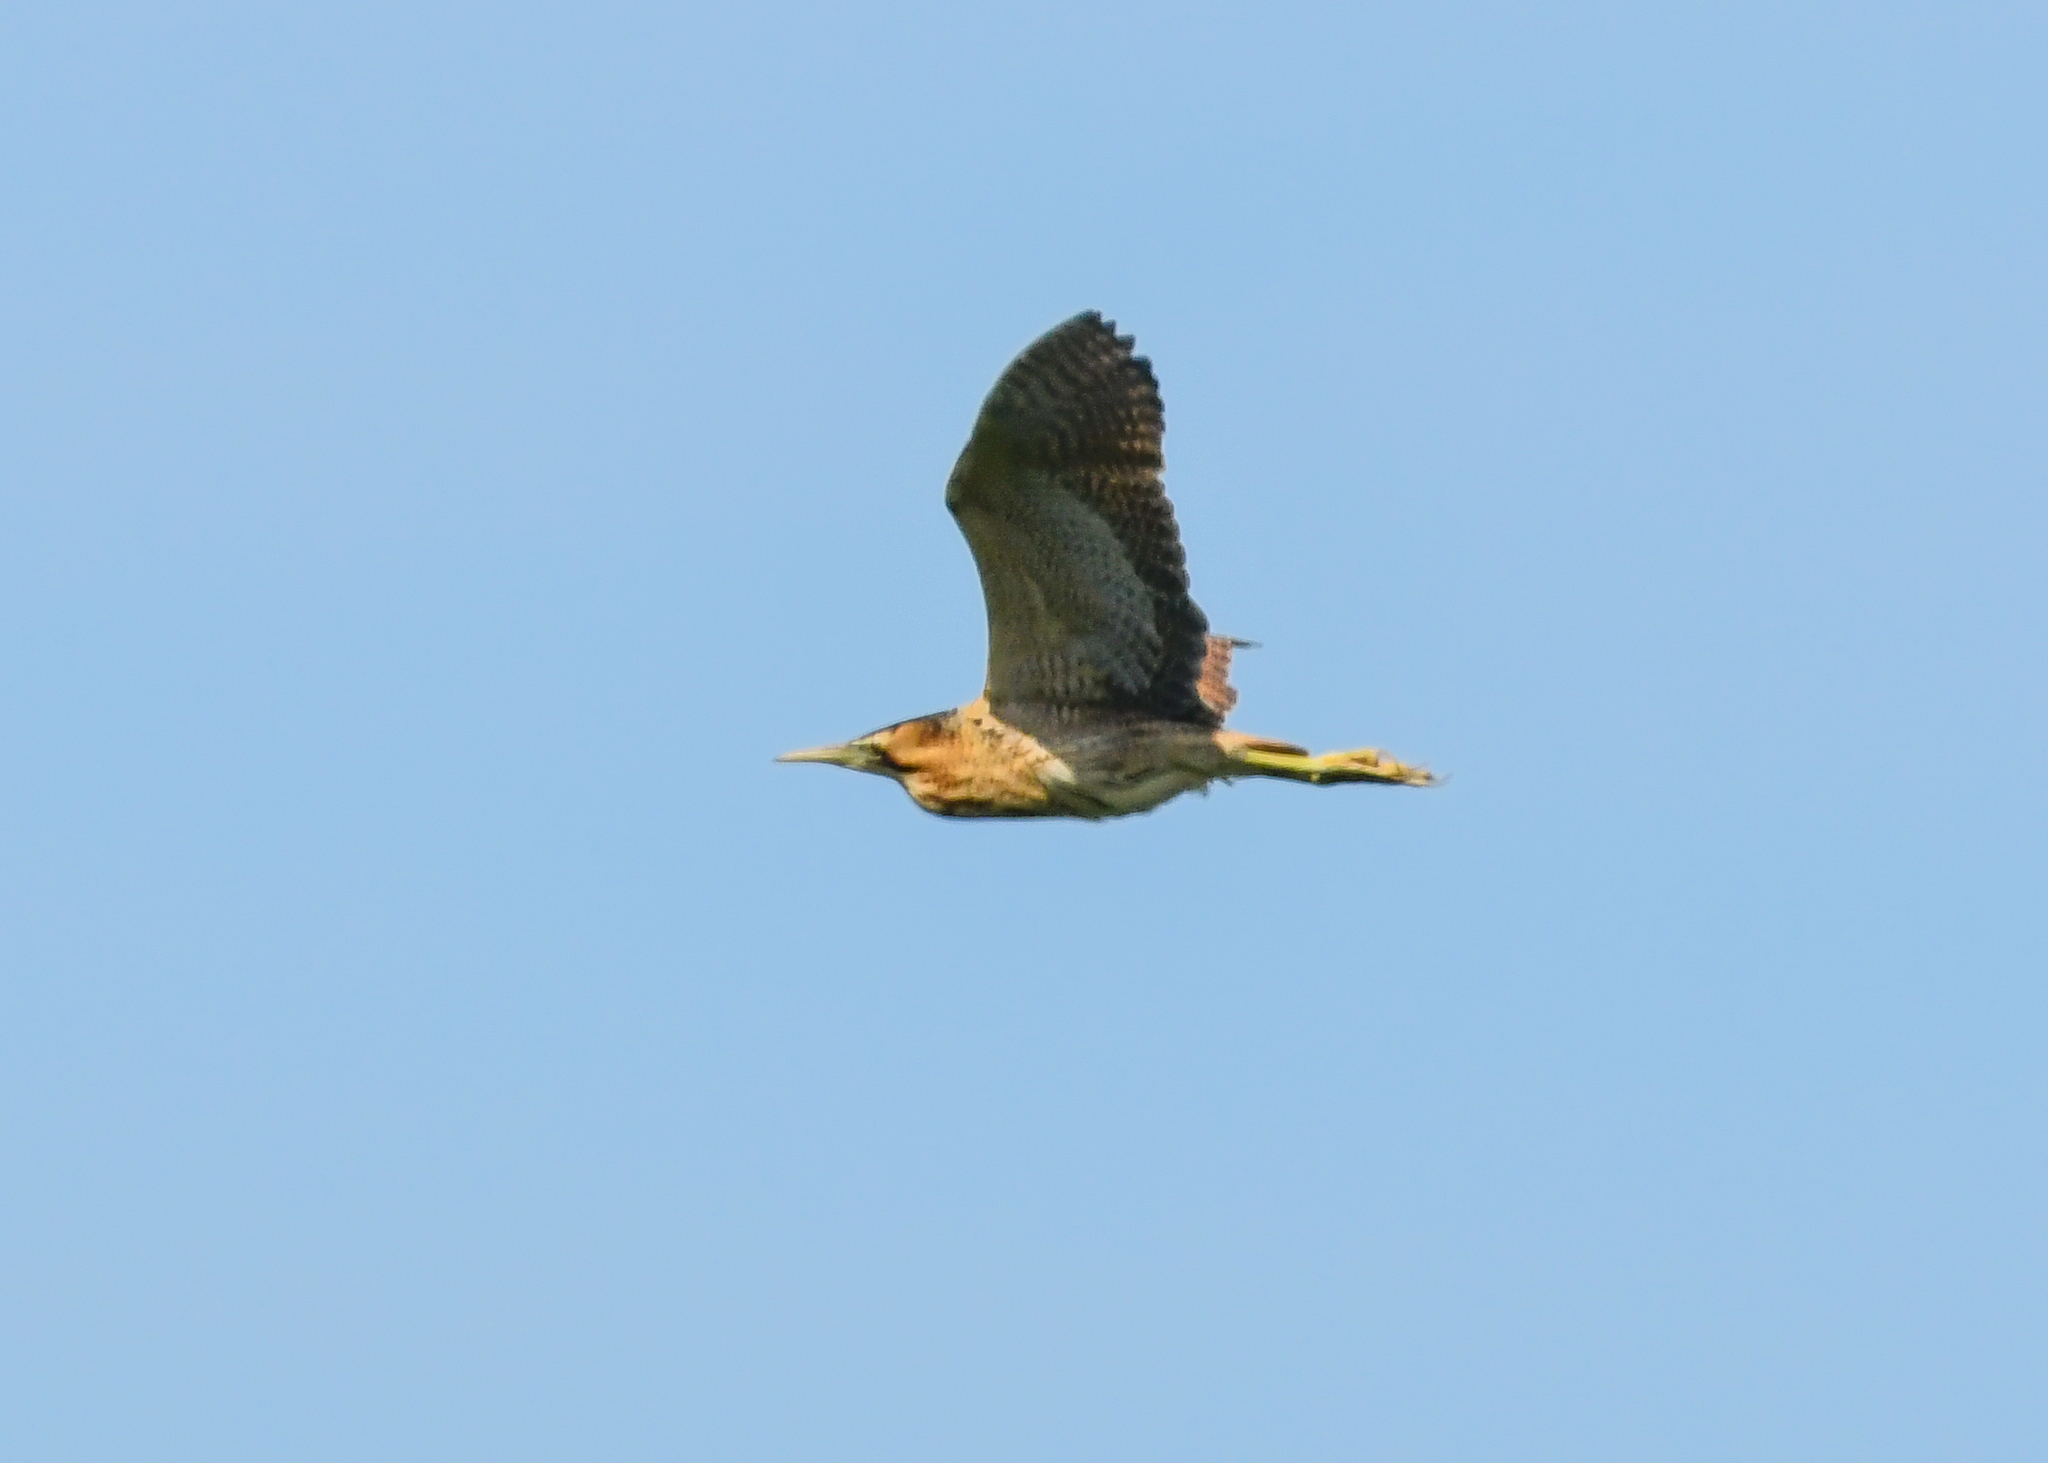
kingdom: Animalia
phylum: Chordata
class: Aves
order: Pelecaniformes
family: Ardeidae
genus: Botaurus
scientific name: Botaurus stellaris
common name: Eurasian bittern
